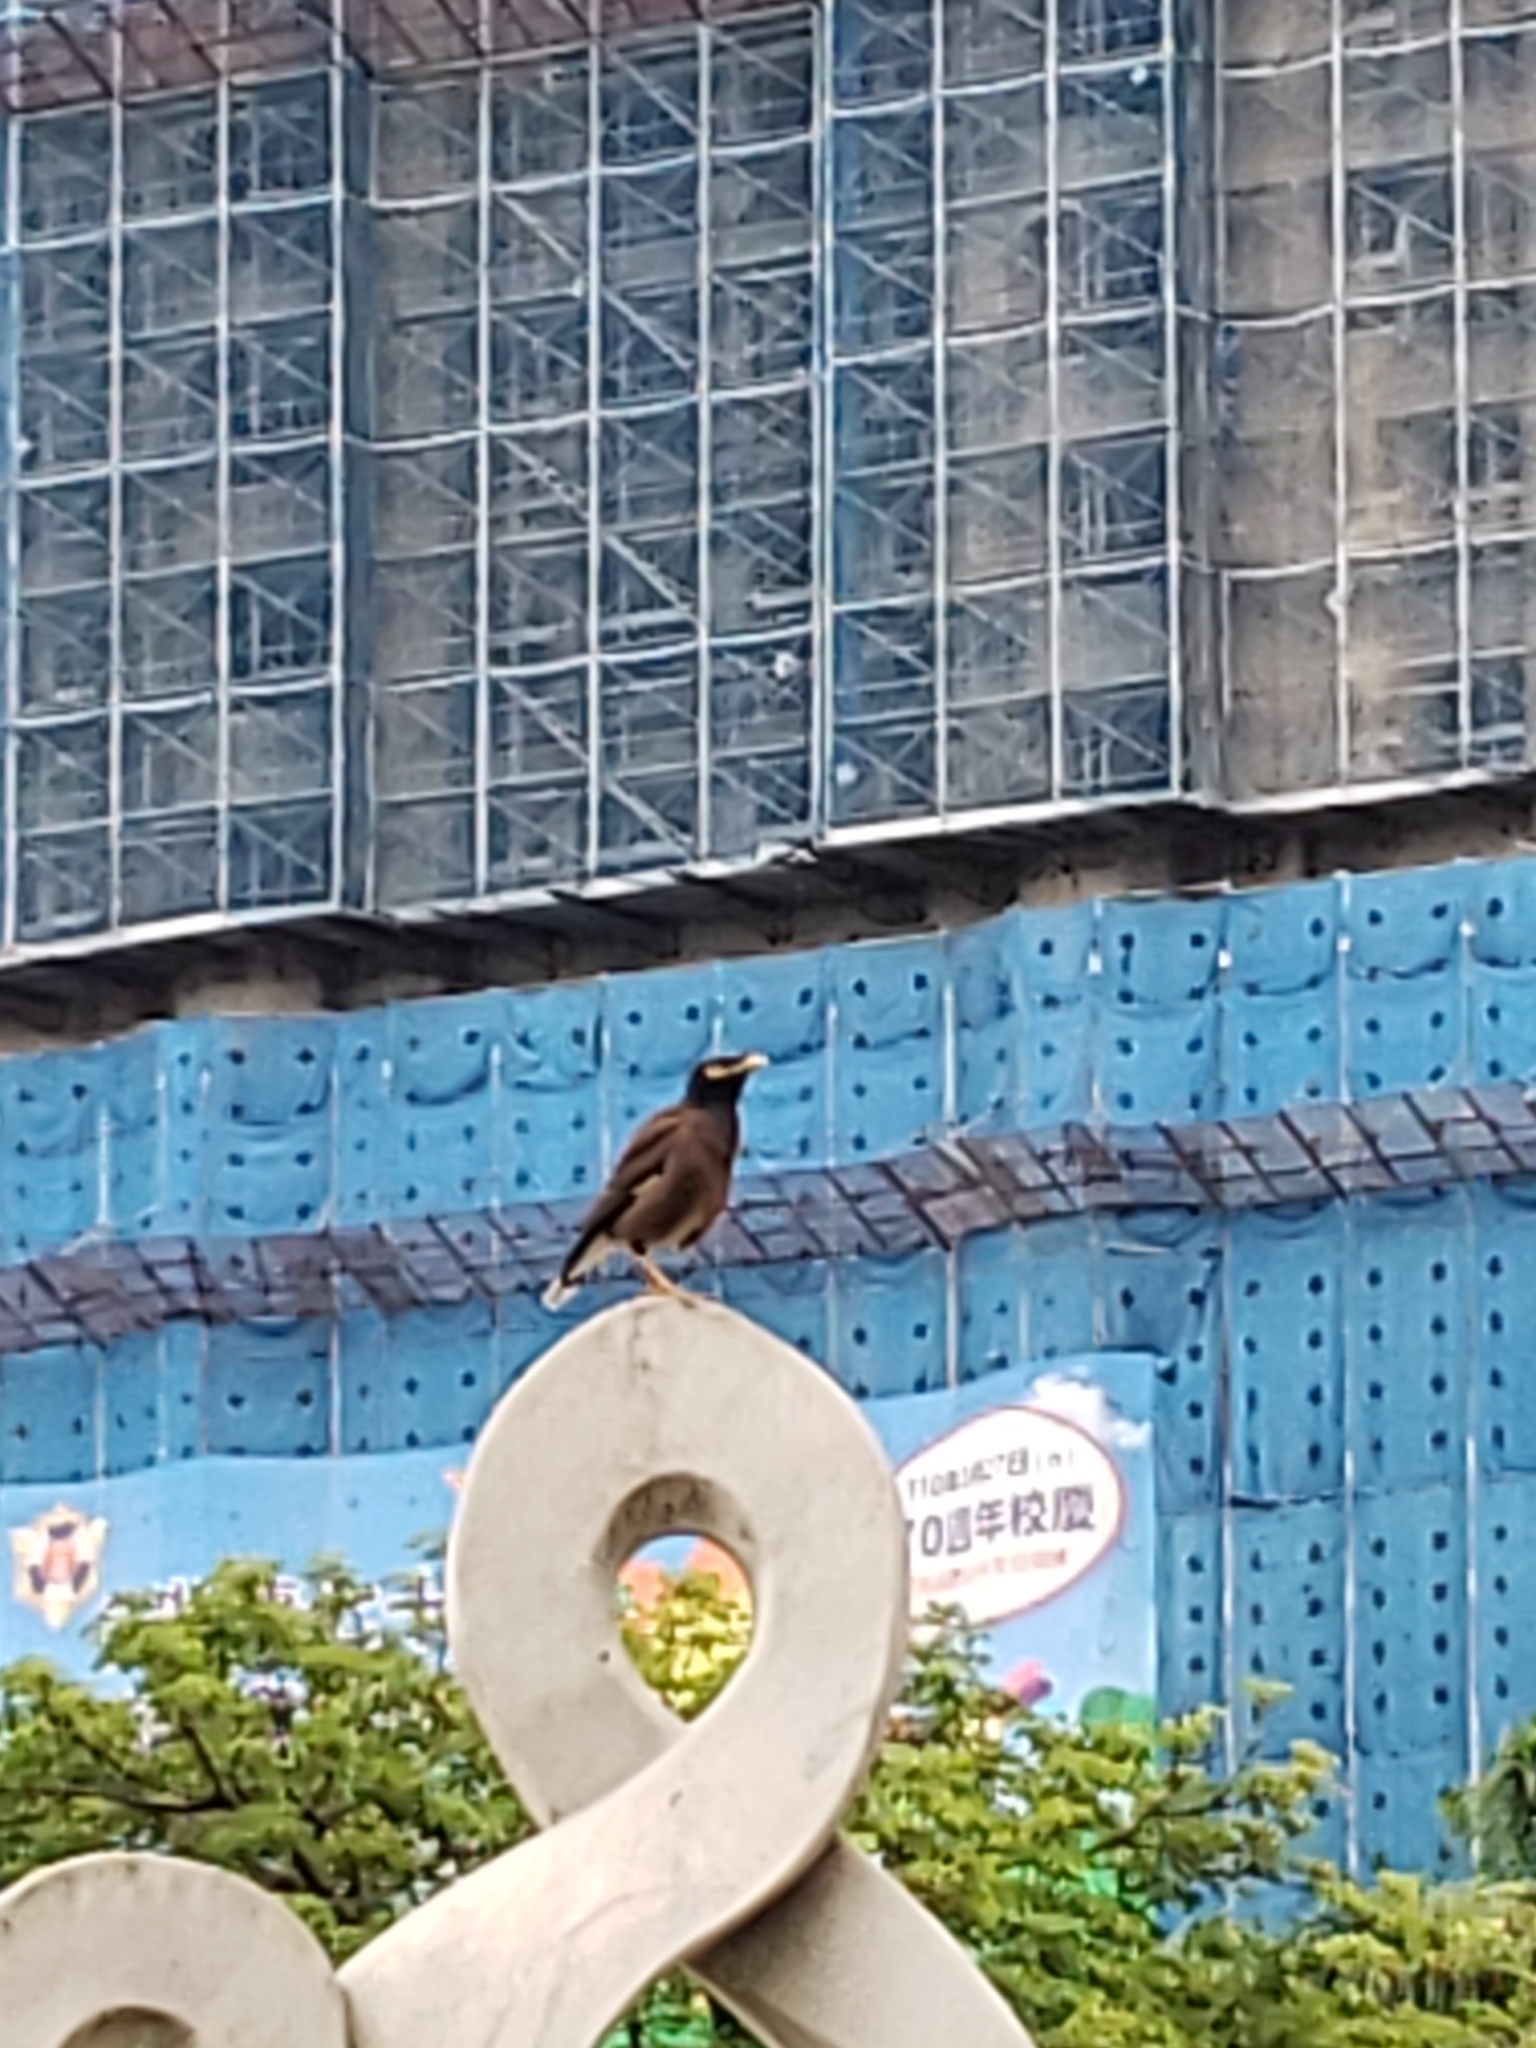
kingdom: Animalia
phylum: Chordata
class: Aves
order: Passeriformes
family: Sturnidae
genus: Acridotheres
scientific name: Acridotheres tristis
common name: Common myna
